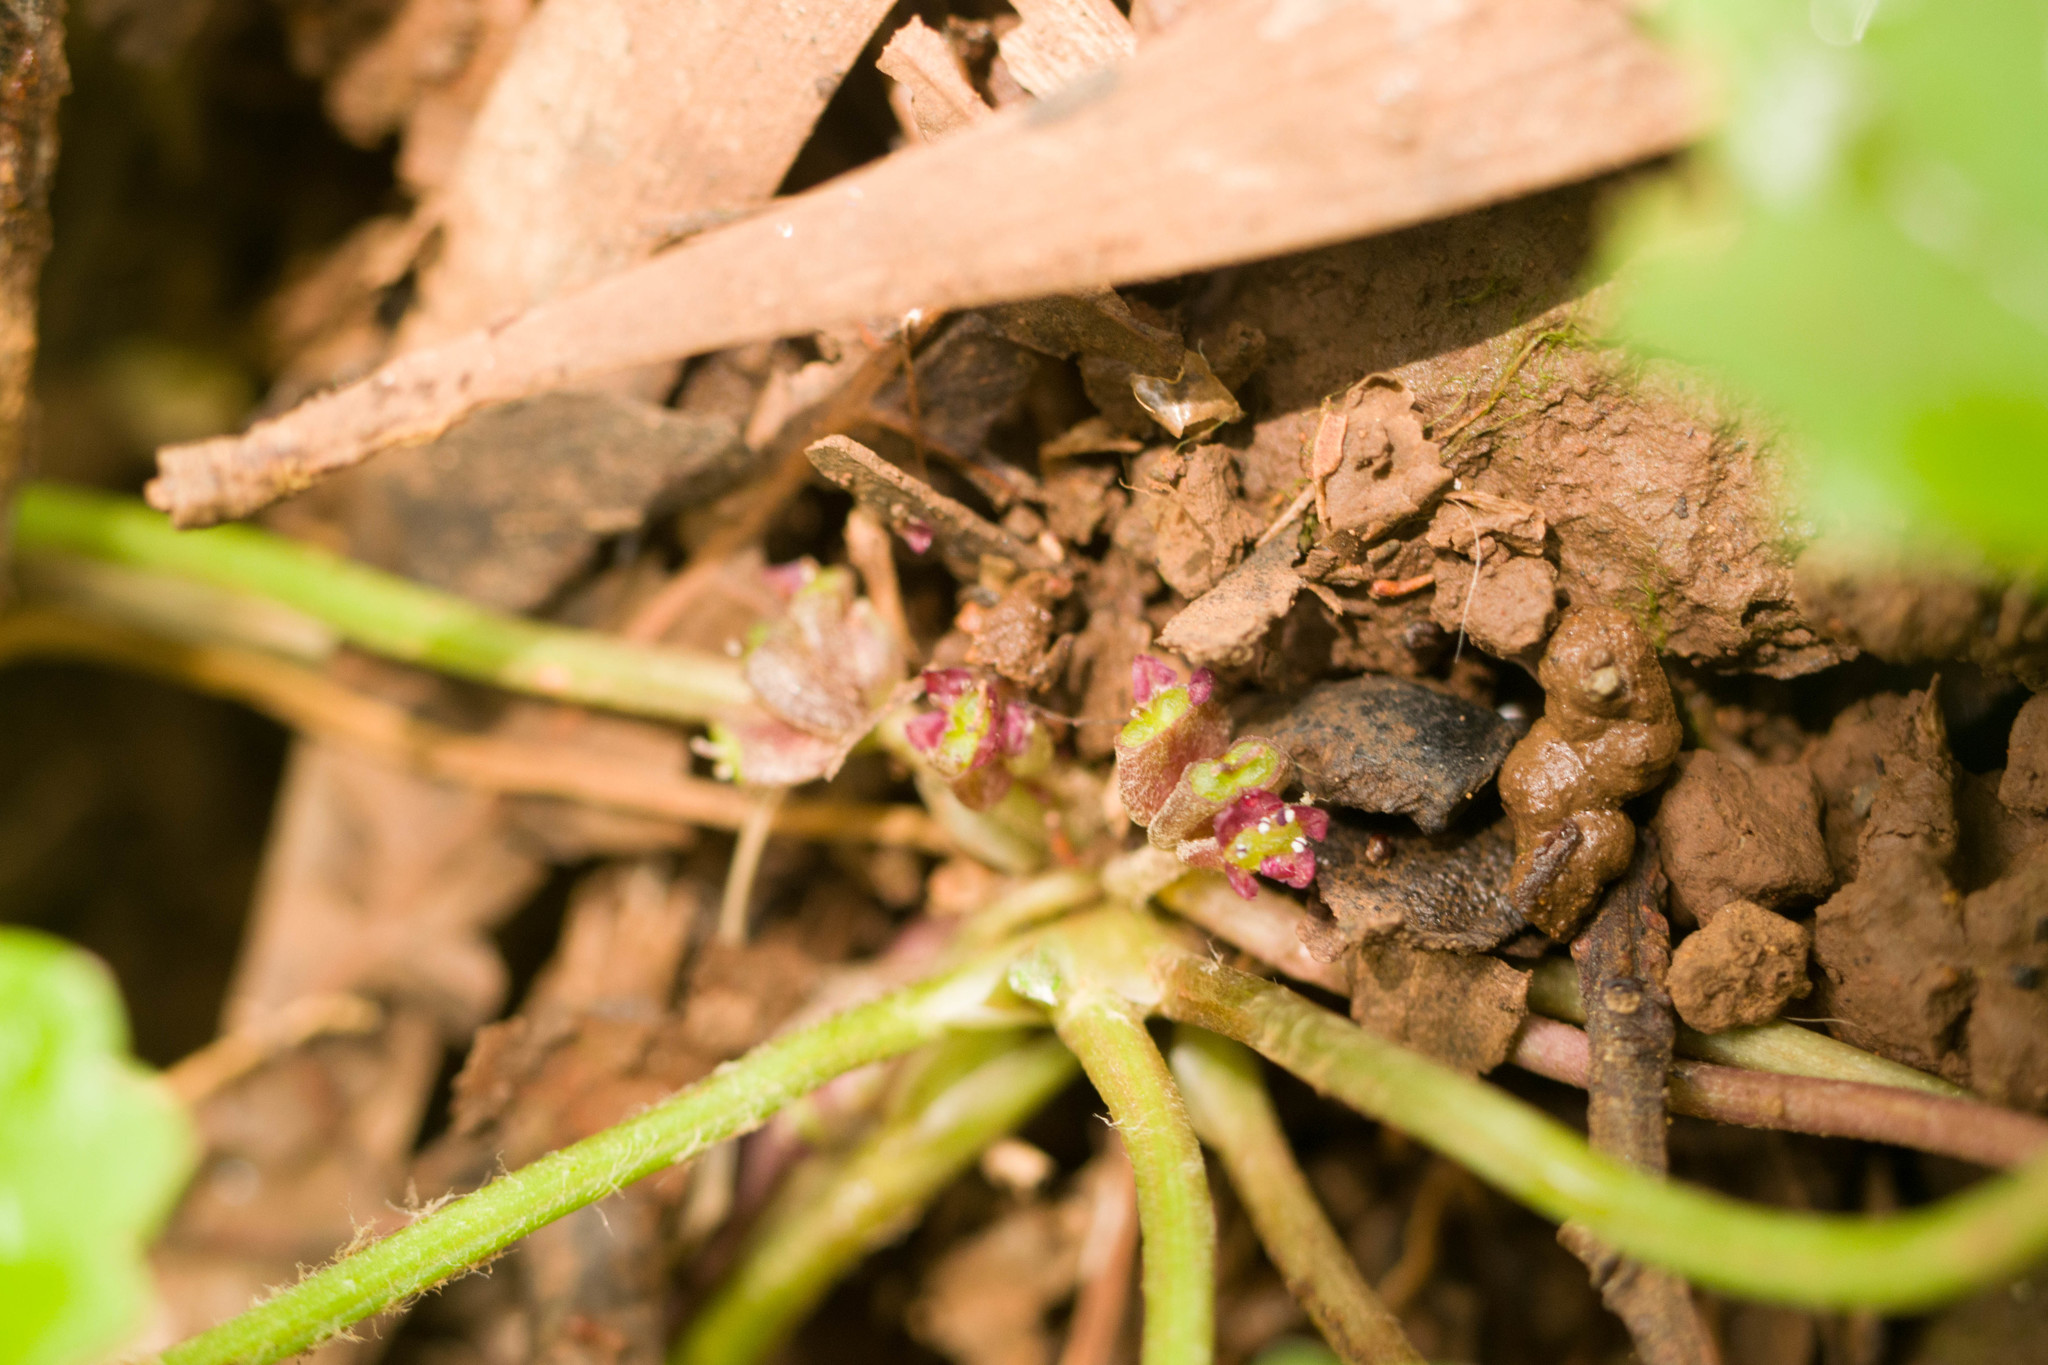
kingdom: Plantae
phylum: Tracheophyta
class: Magnoliopsida
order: Apiales
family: Apiaceae
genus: Centella
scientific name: Centella asiatica
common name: Spadeleaf
